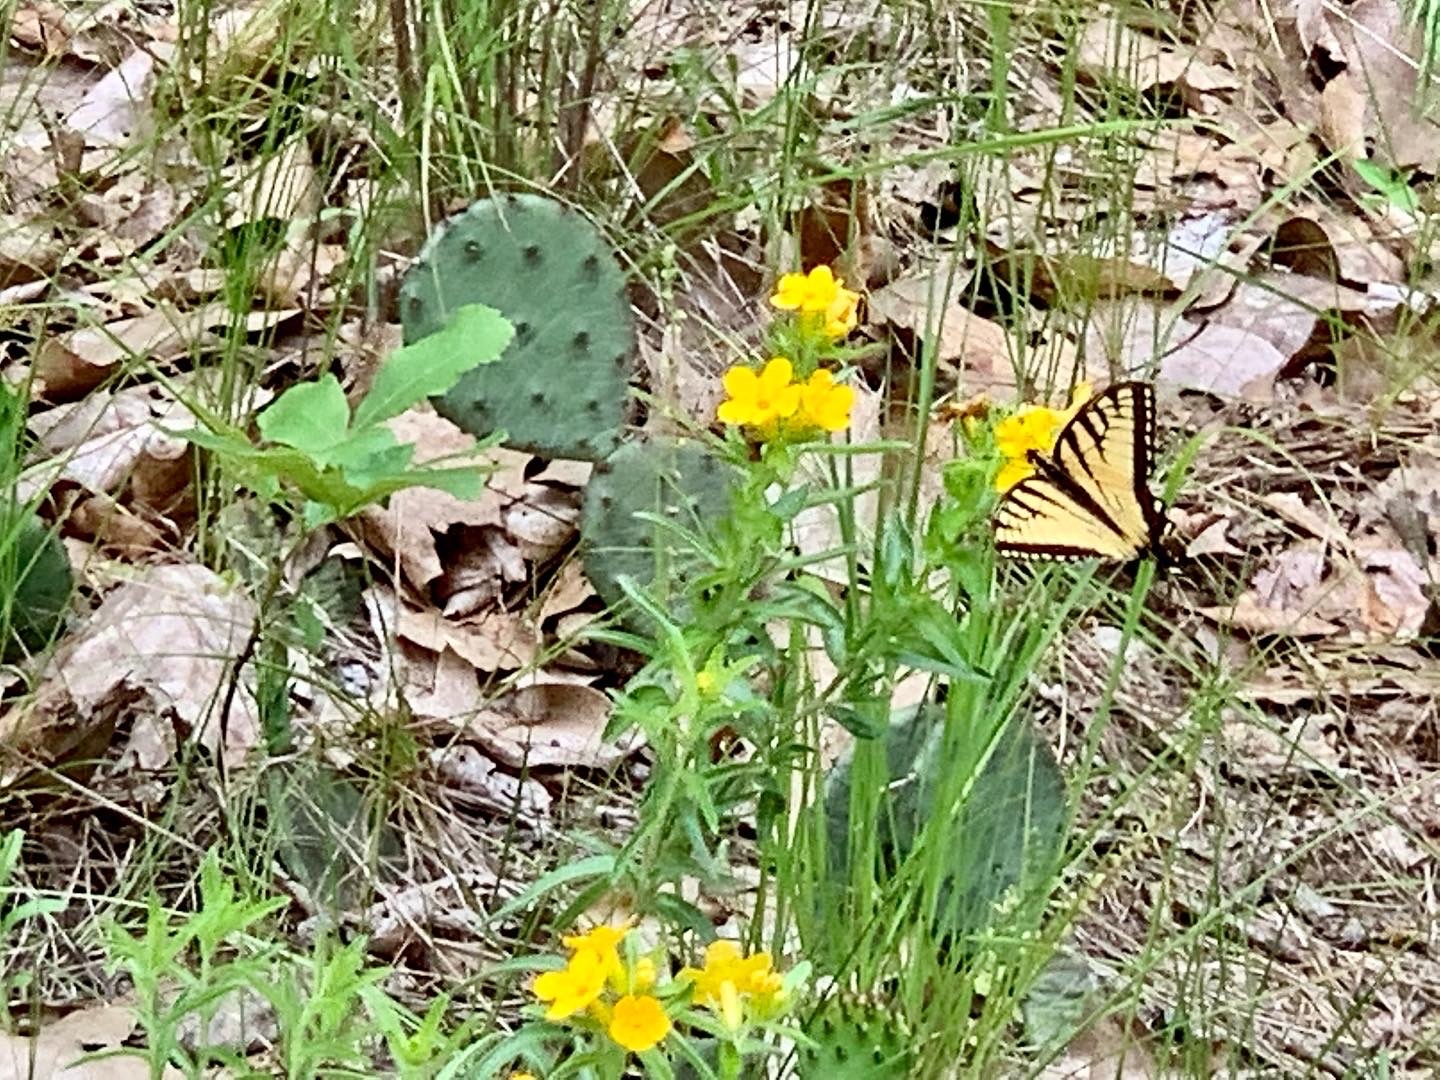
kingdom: Animalia
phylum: Arthropoda
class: Insecta
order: Lepidoptera
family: Papilionidae
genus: Papilio
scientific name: Papilio glaucus
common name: Tiger swallowtail
